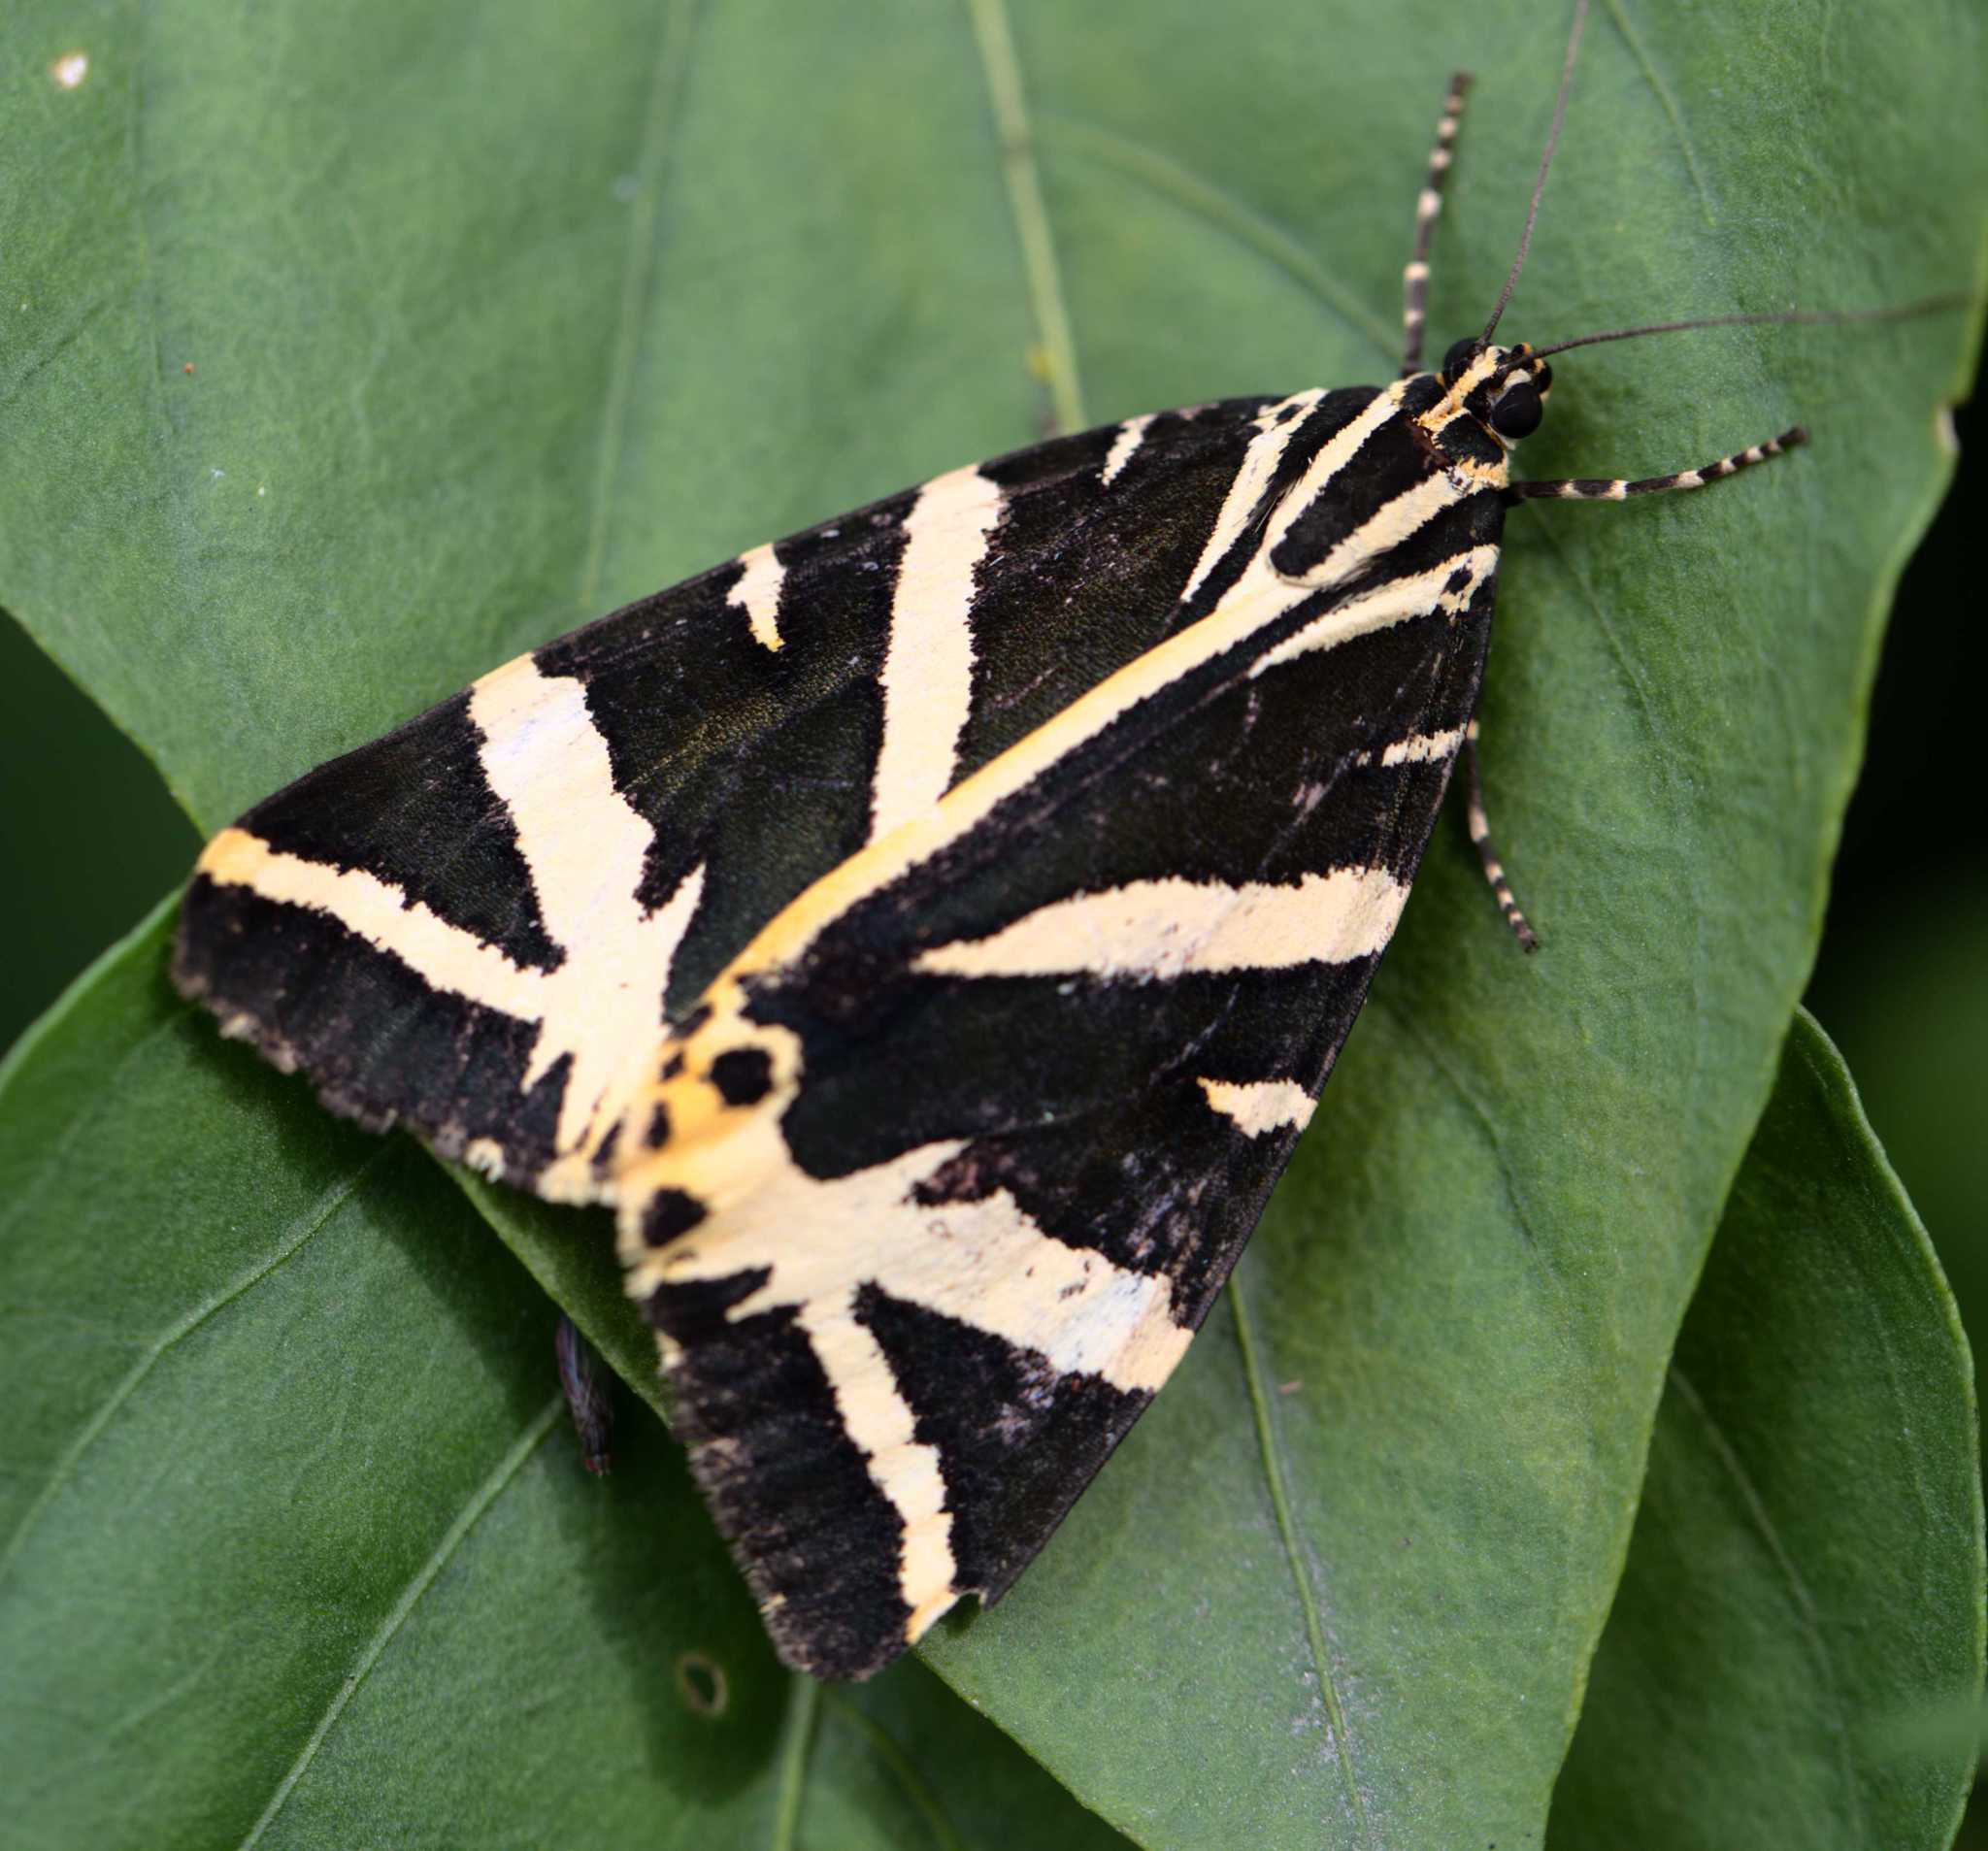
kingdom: Animalia
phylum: Arthropoda
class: Insecta
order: Lepidoptera
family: Erebidae
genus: Euplagia
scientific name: Euplagia quadripunctaria
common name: Jersey tiger
